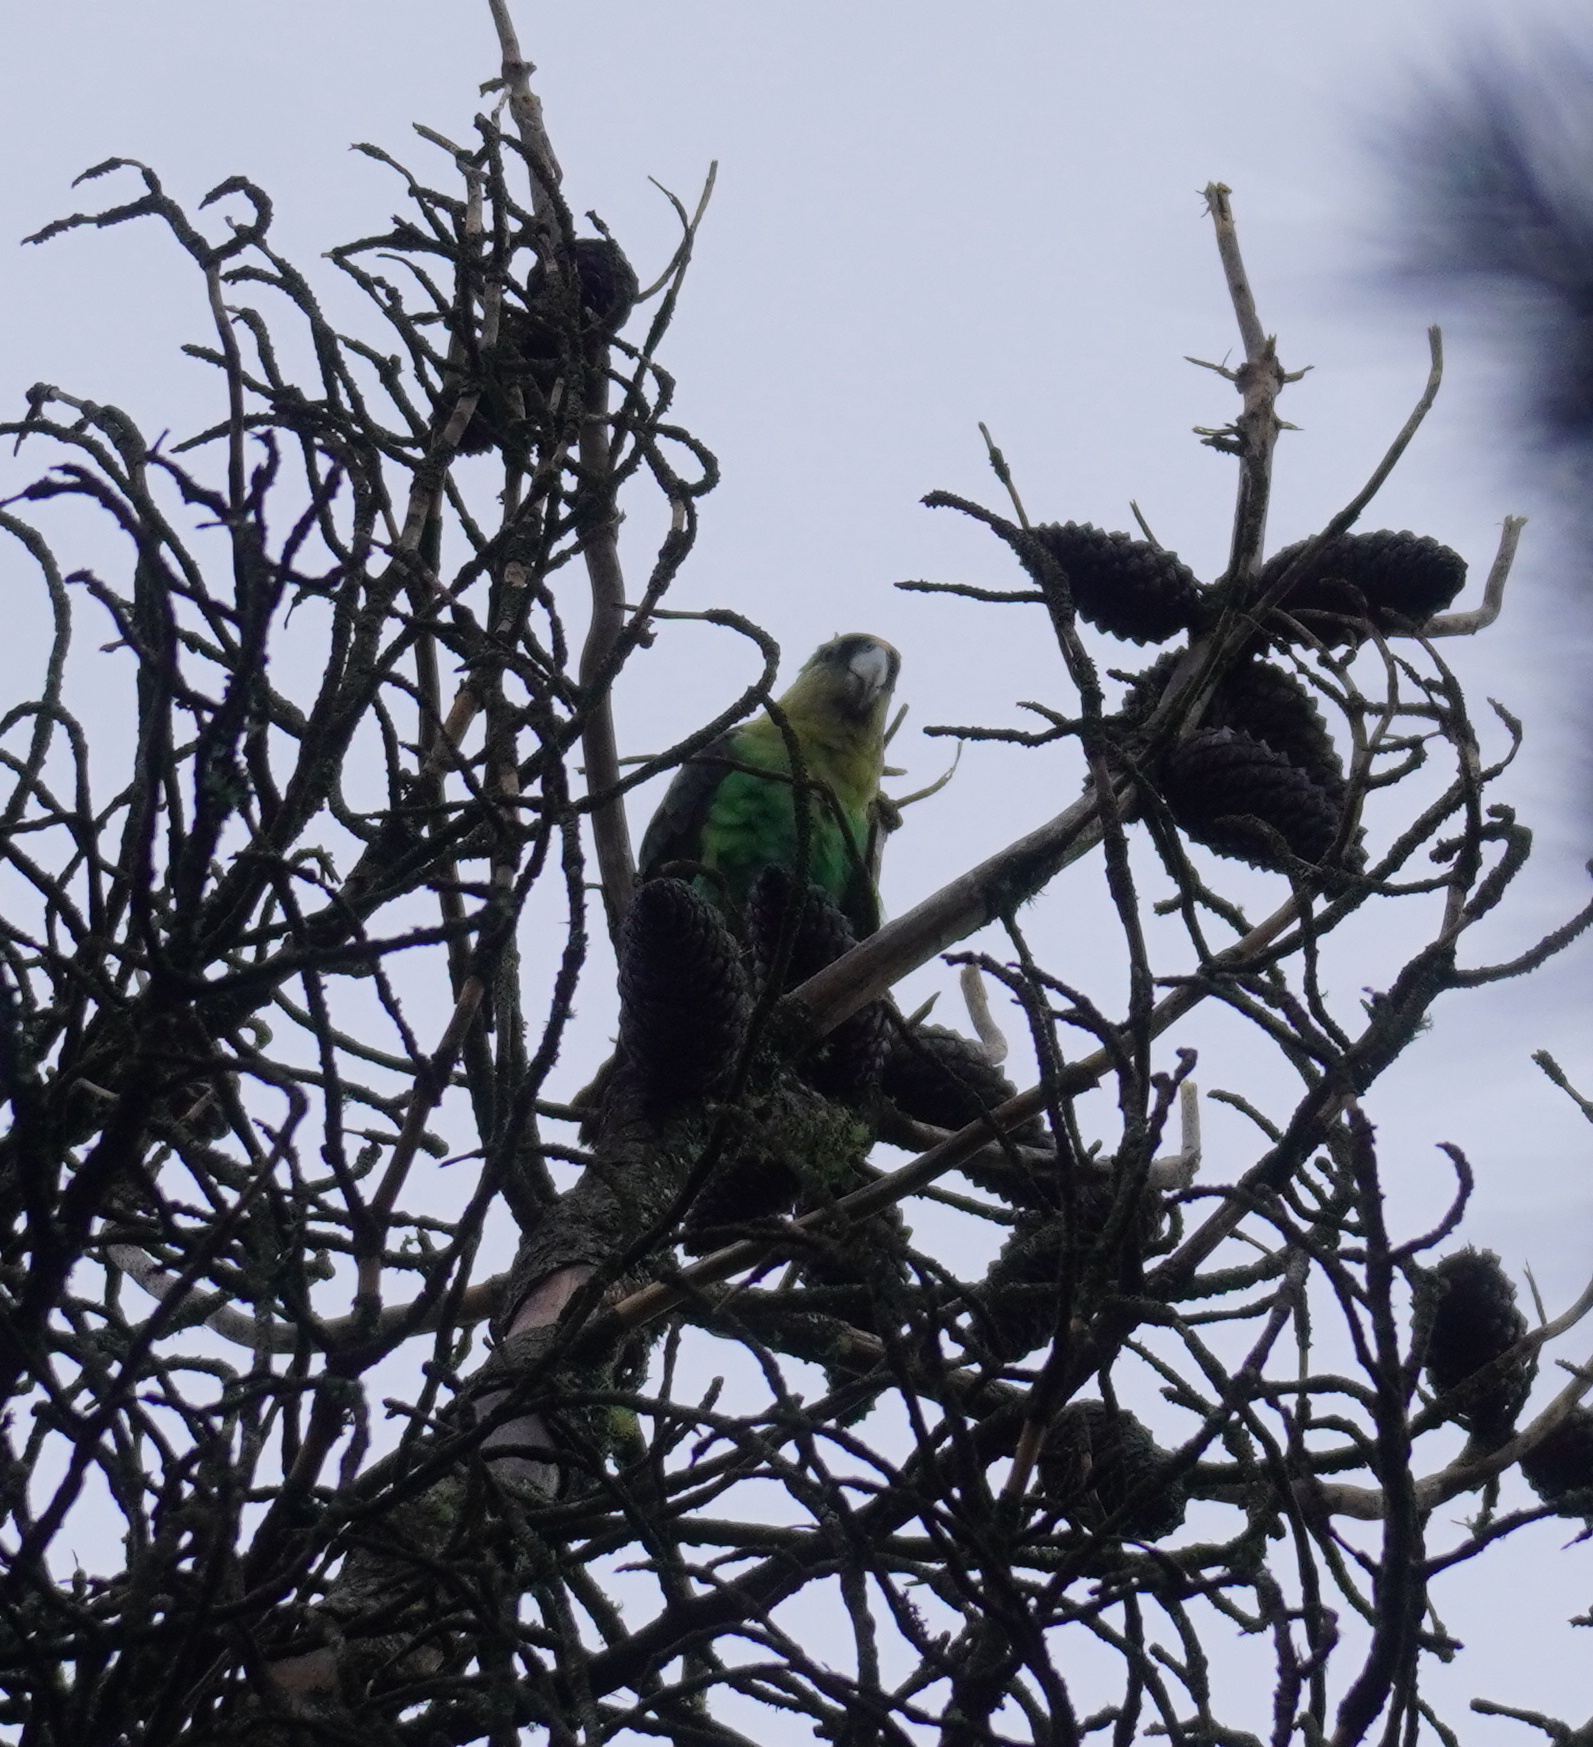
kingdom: Animalia
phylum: Chordata
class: Aves
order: Psittaciformes
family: Psittacidae
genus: Poicephalus
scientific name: Poicephalus robustus
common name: Cape parrot
